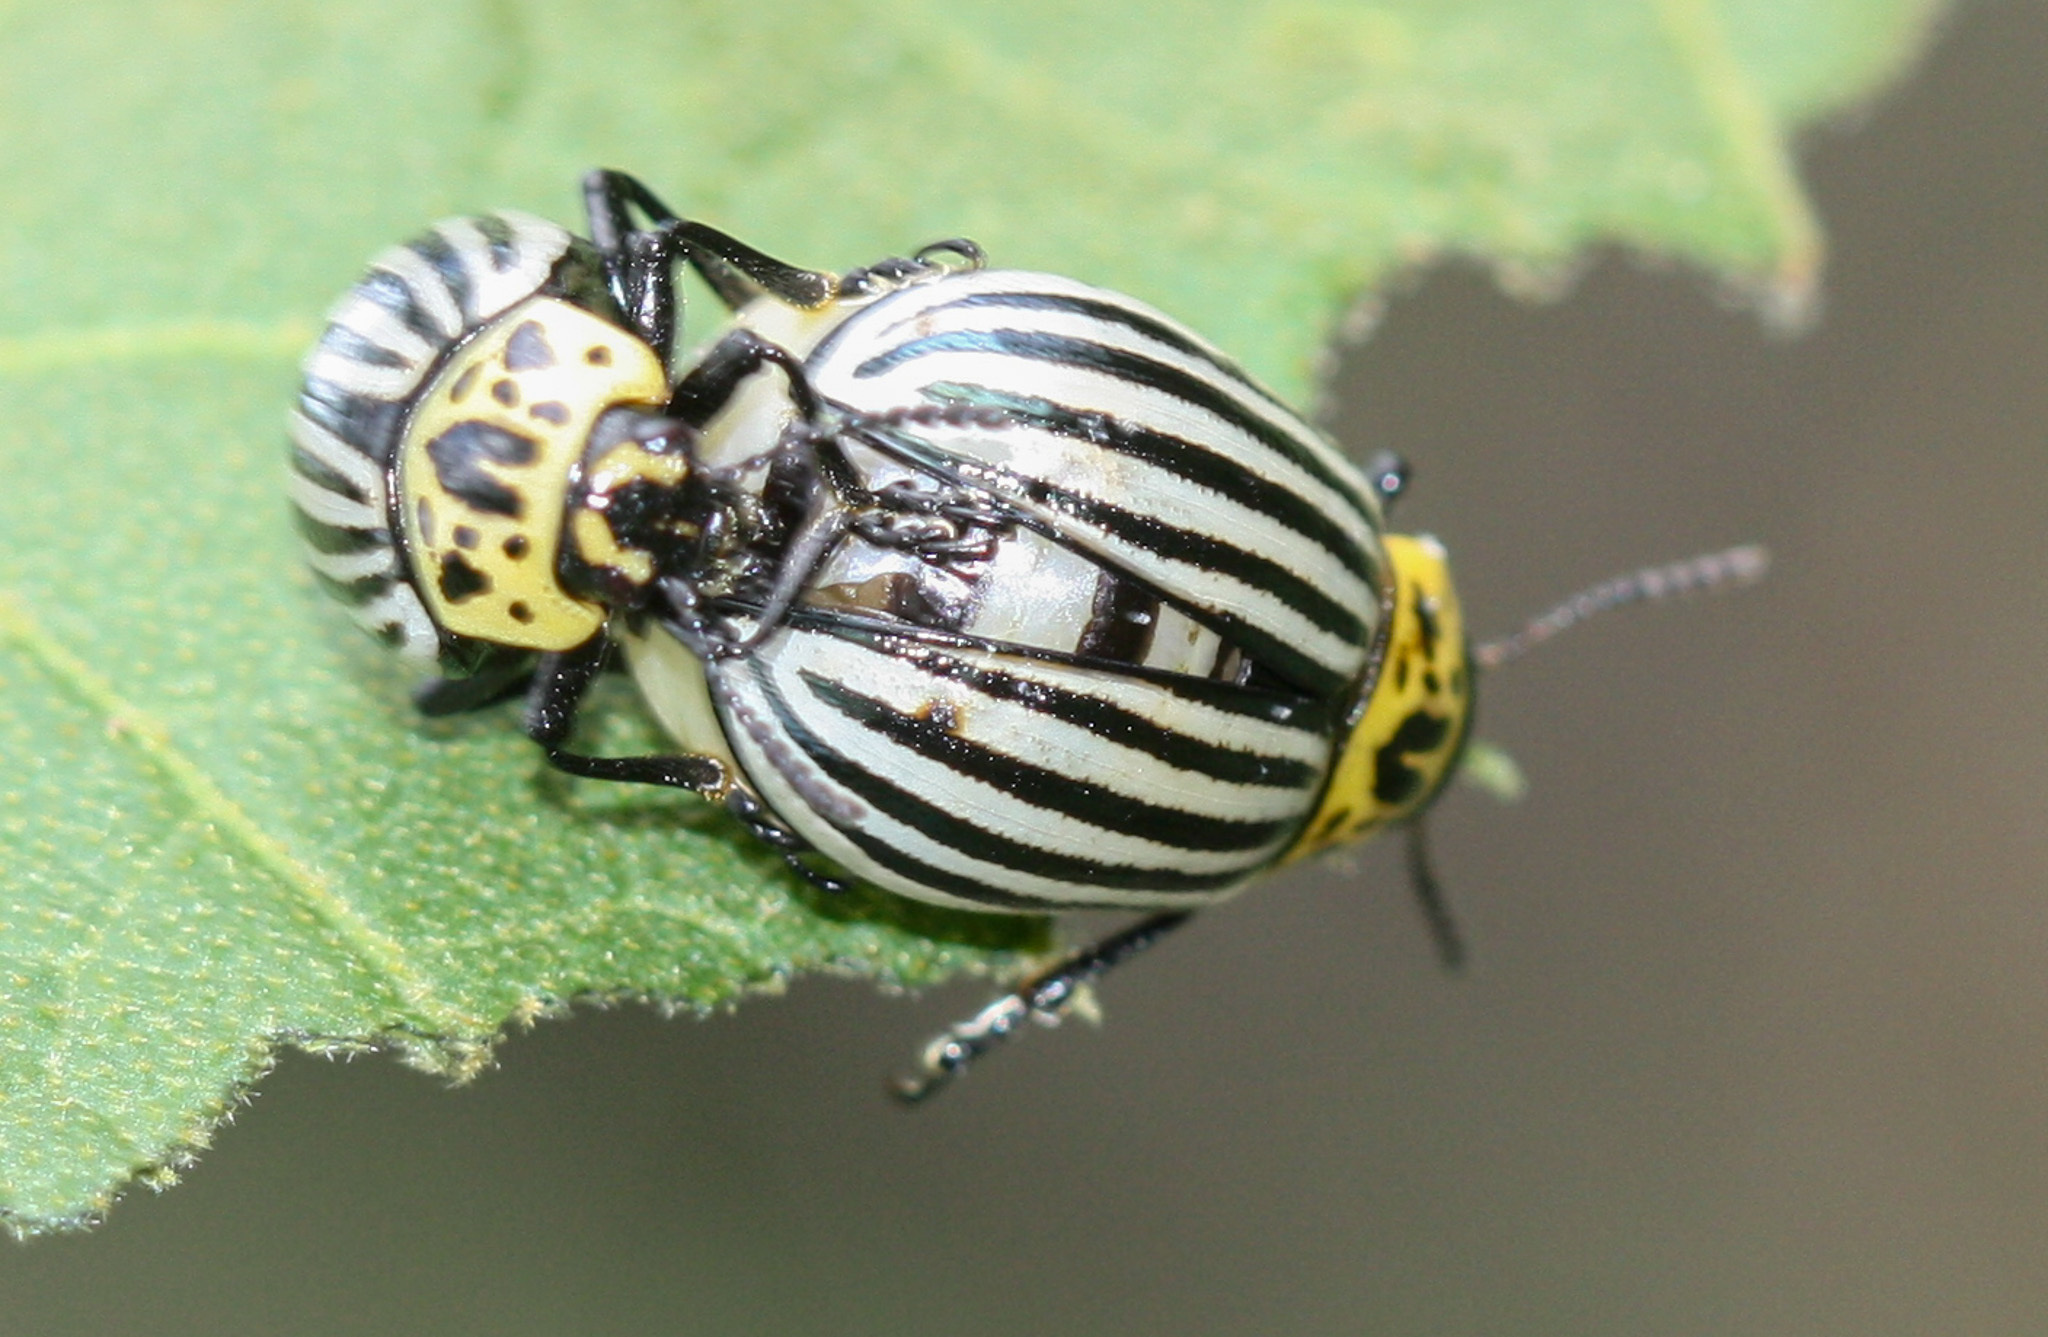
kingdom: Animalia
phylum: Arthropoda
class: Insecta
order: Coleoptera
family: Chrysomelidae
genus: Leptinotarsa
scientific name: Leptinotarsa
